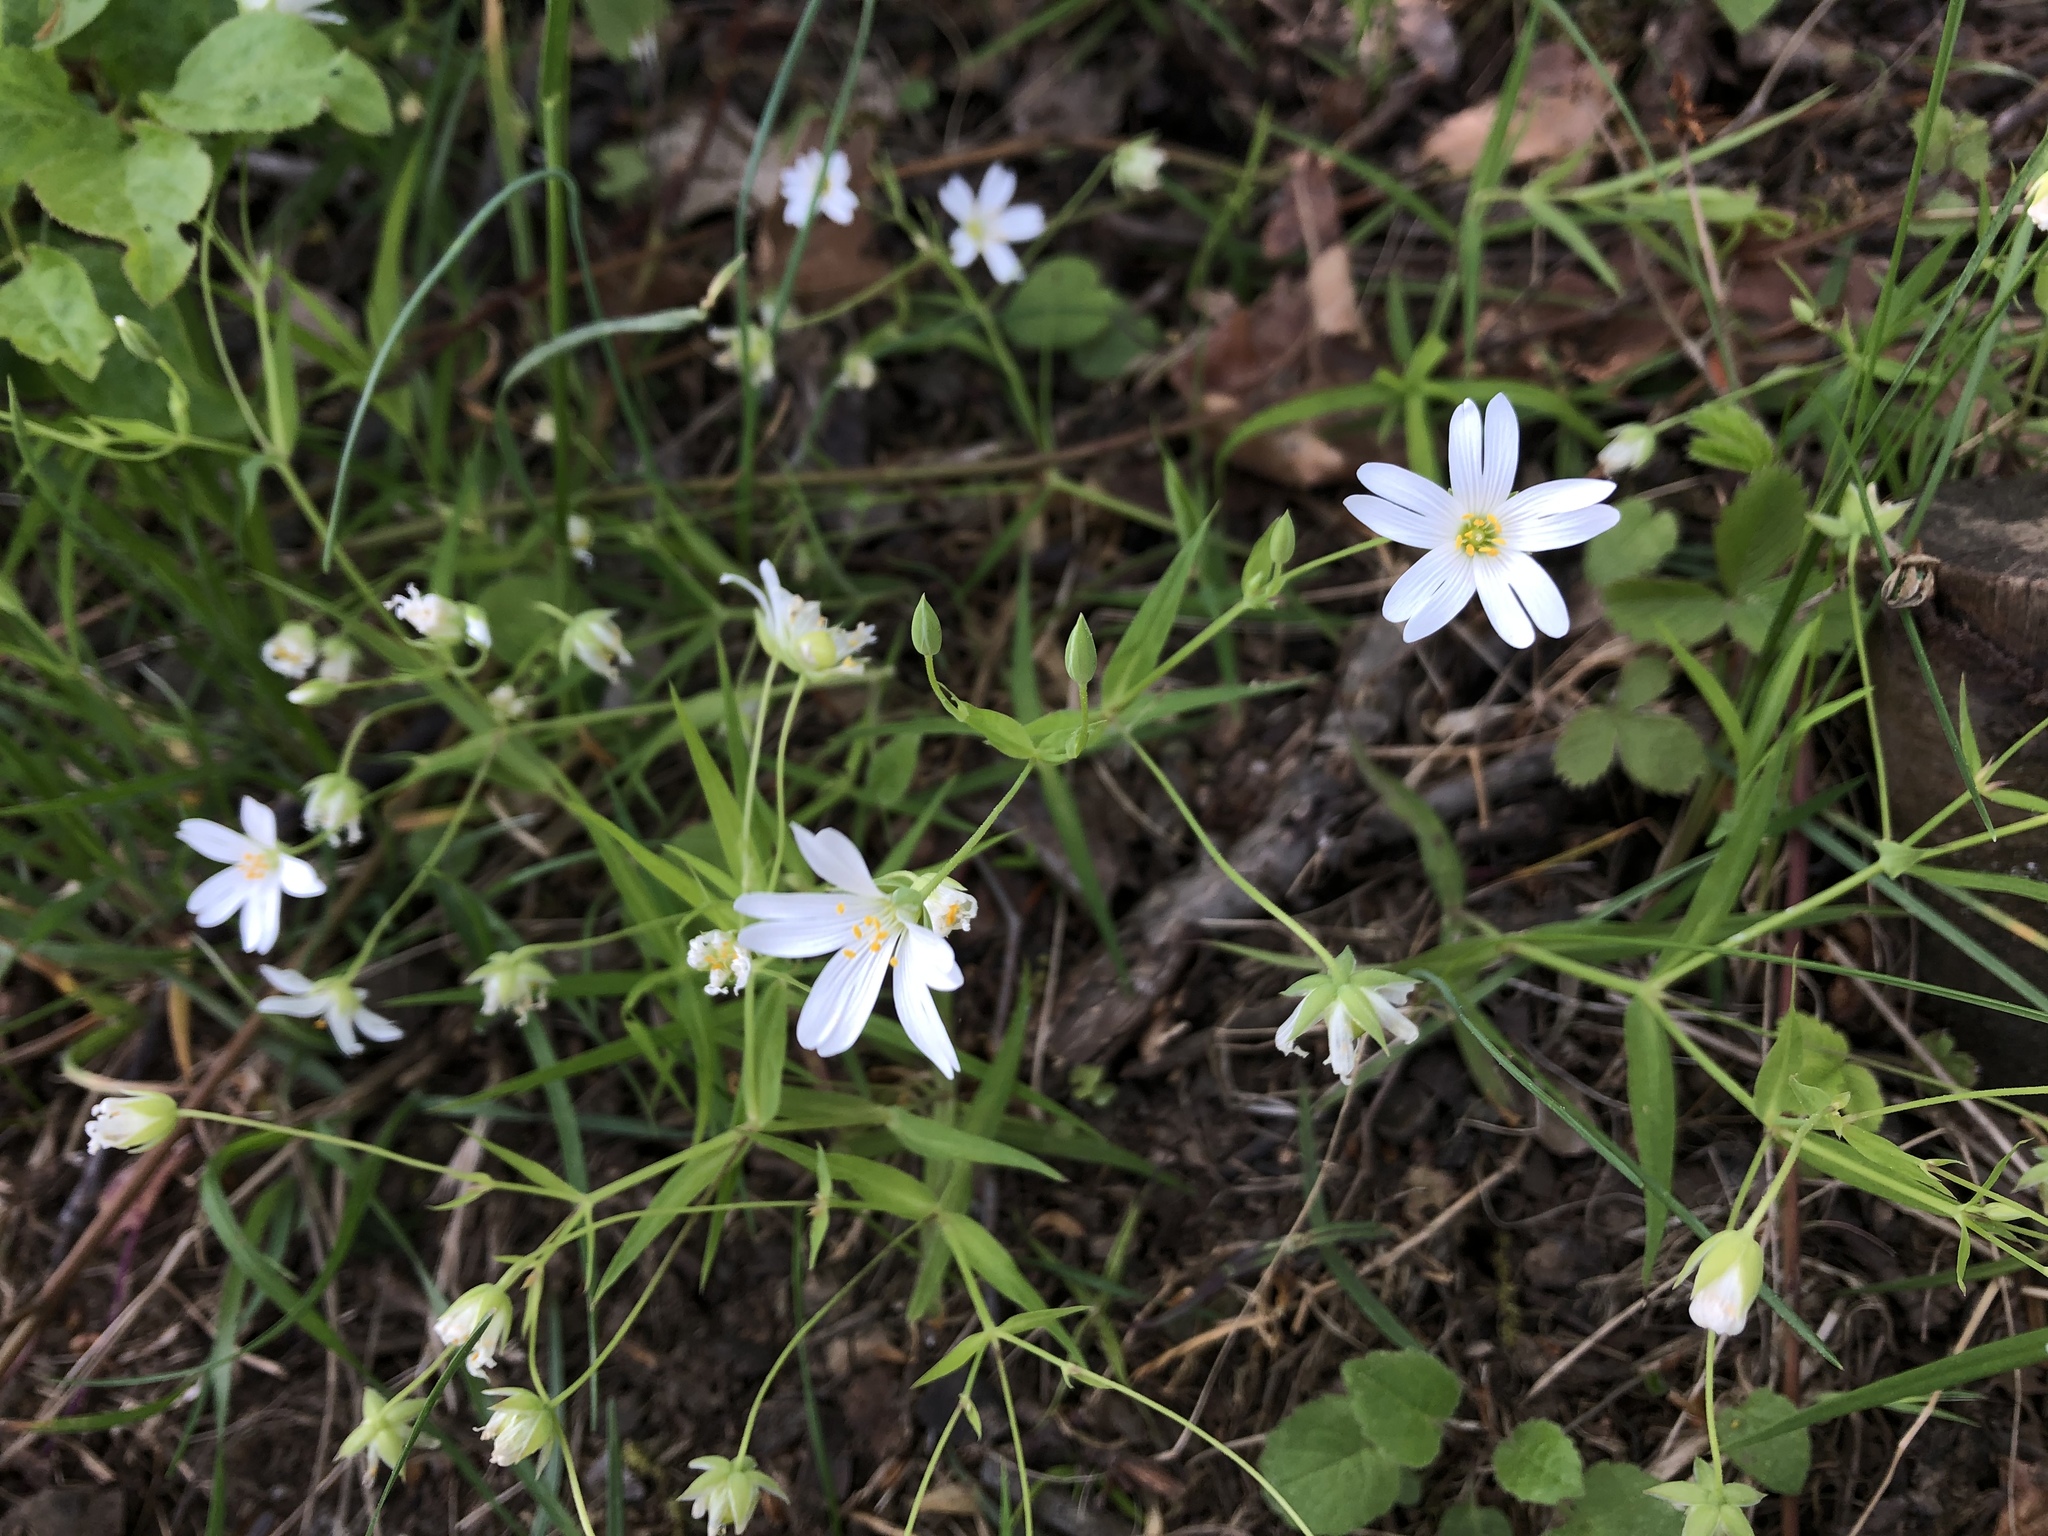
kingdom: Plantae
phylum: Tracheophyta
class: Magnoliopsida
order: Caryophyllales
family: Caryophyllaceae
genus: Rabelera
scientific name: Rabelera holostea
